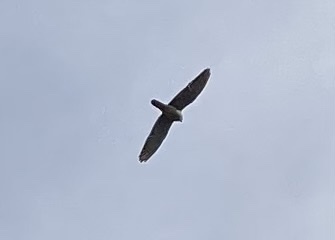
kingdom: Animalia
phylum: Chordata
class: Aves
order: Falconiformes
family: Falconidae
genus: Falco
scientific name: Falco tinnunculus
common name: Common kestrel
